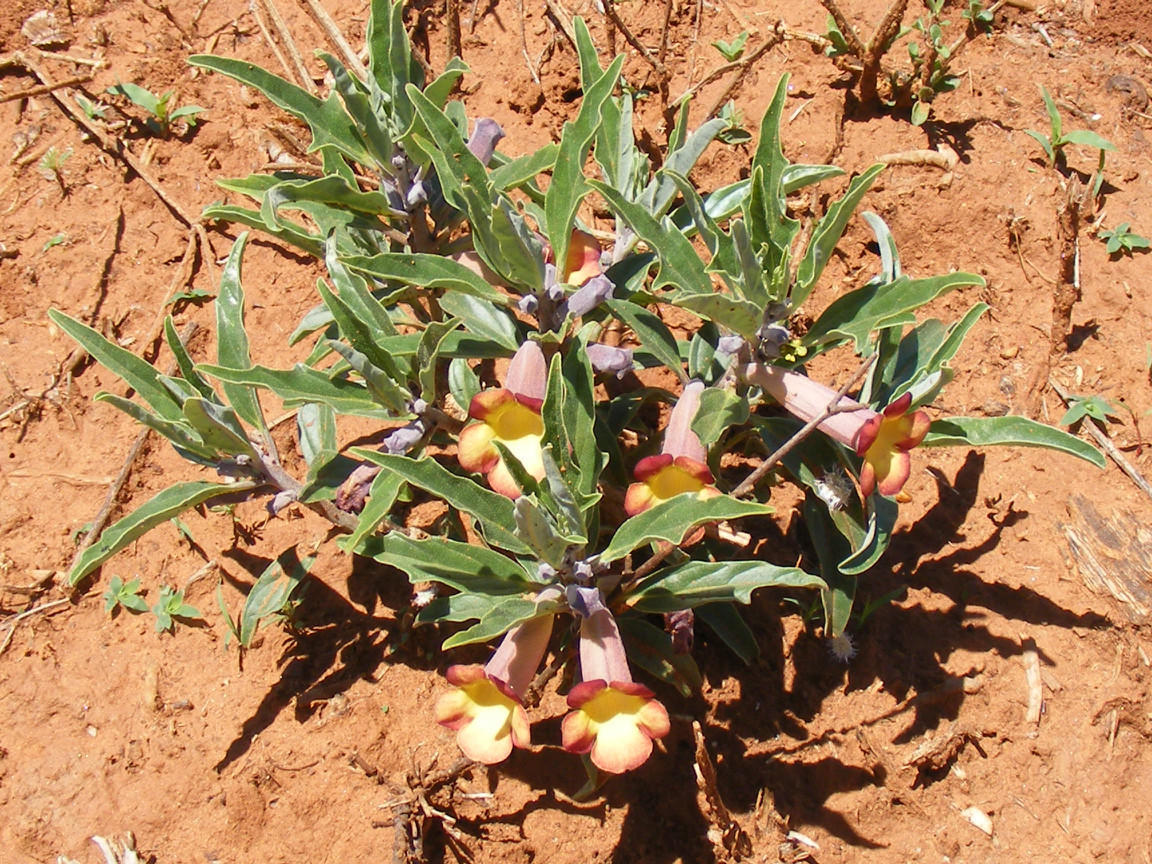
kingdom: Plantae
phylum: Tracheophyta
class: Magnoliopsida
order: Lamiales
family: Pedaliaceae
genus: Pterodiscus
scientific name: Pterodiscus ngamicus
